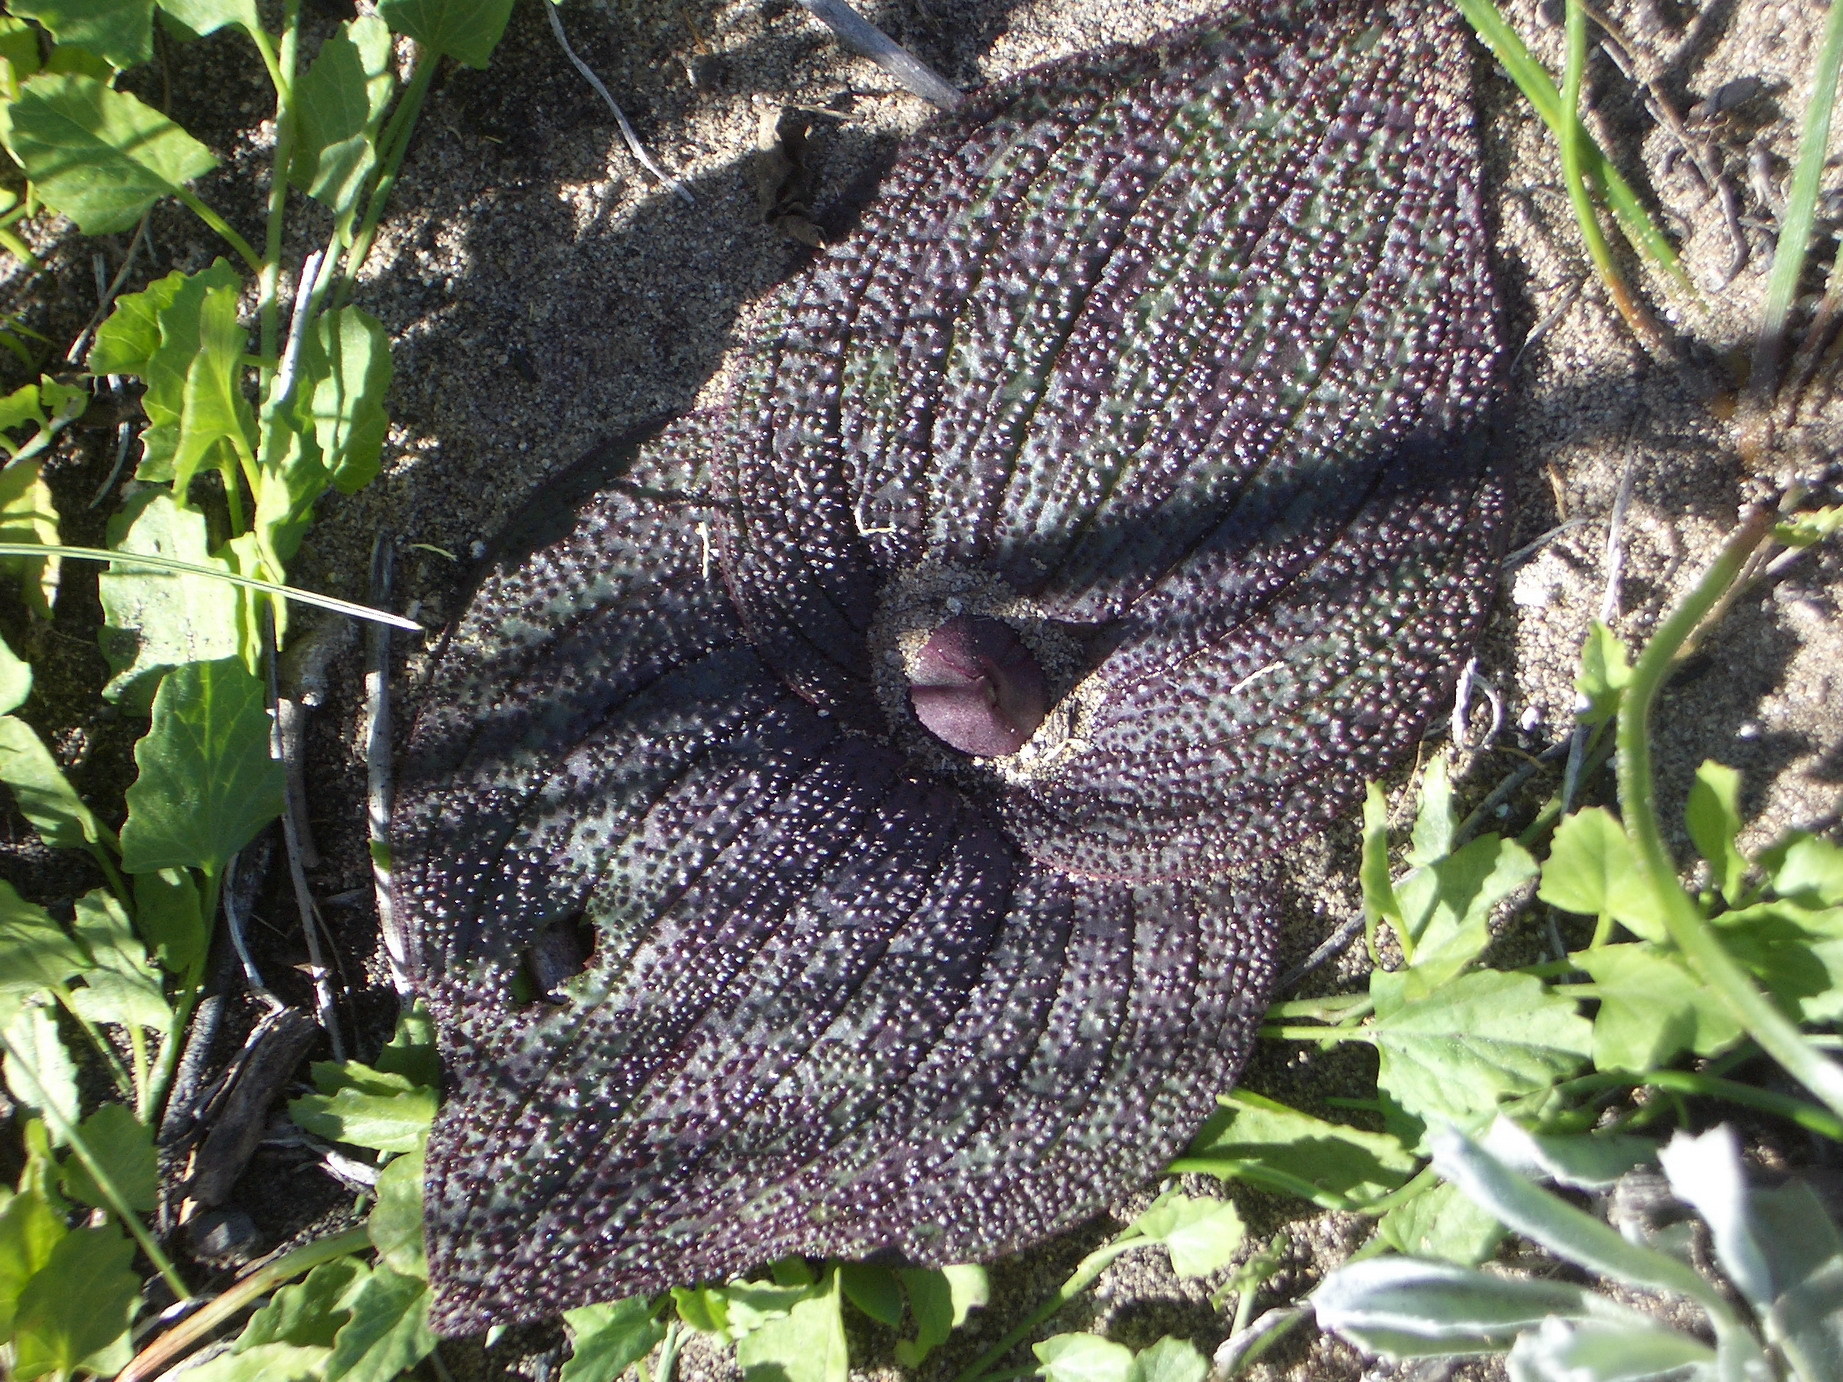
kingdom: Plantae
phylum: Tracheophyta
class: Liliopsida
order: Asparagales
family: Asparagaceae
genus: Massonia
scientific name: Massonia longipes
